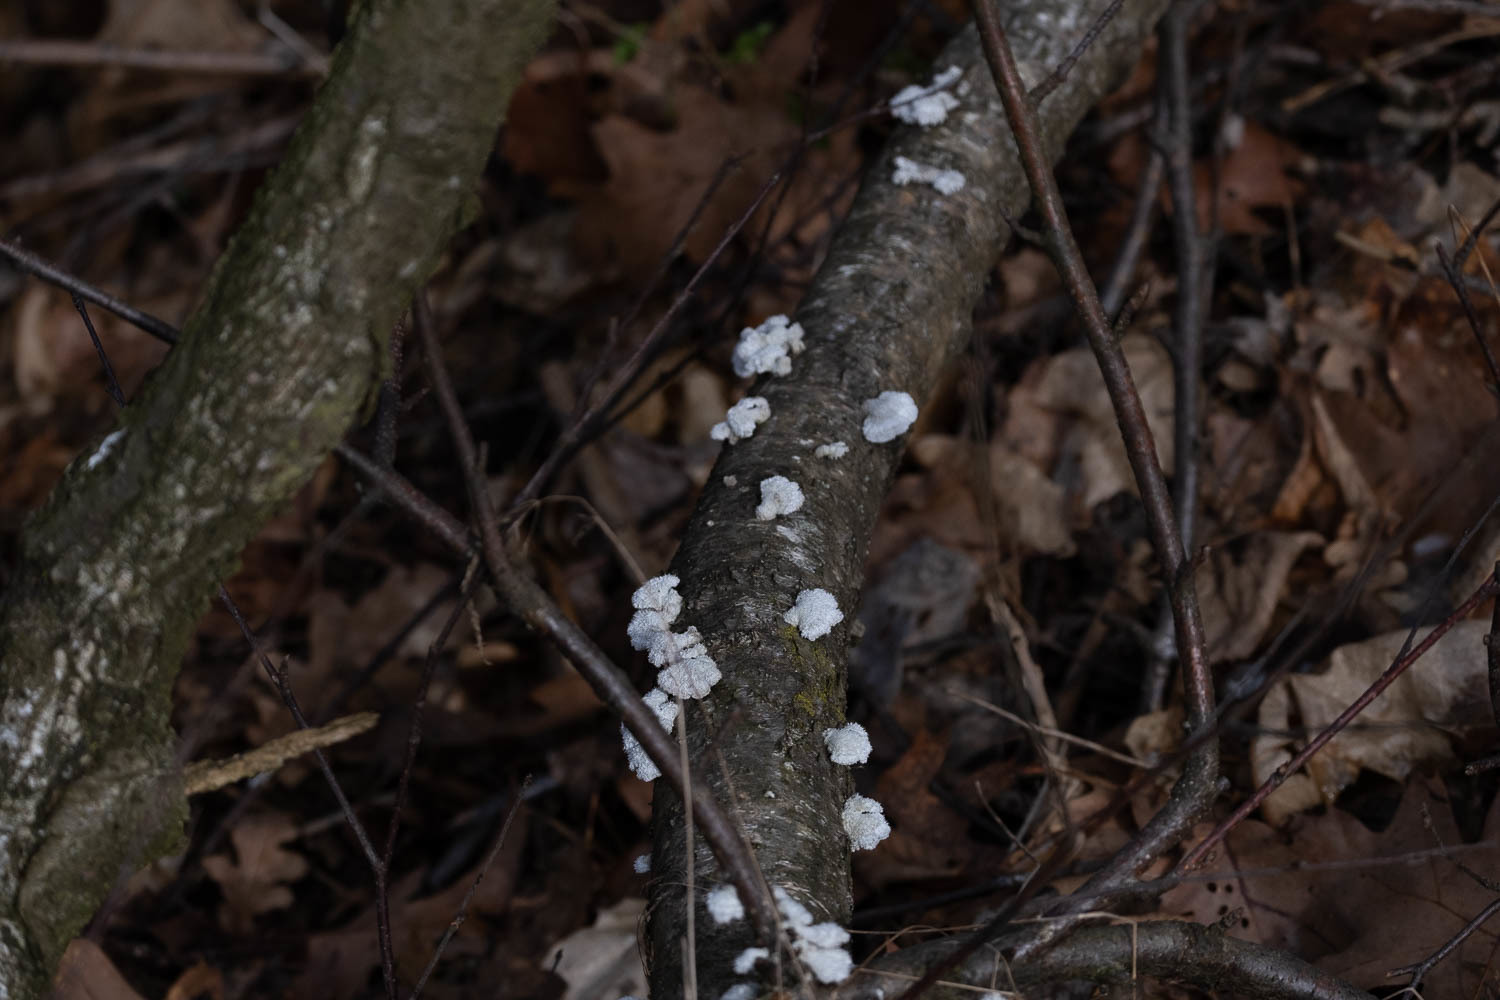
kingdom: Fungi
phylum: Basidiomycota
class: Agaricomycetes
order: Agaricales
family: Schizophyllaceae
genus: Schizophyllum
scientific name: Schizophyllum commune
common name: Common porecrust
